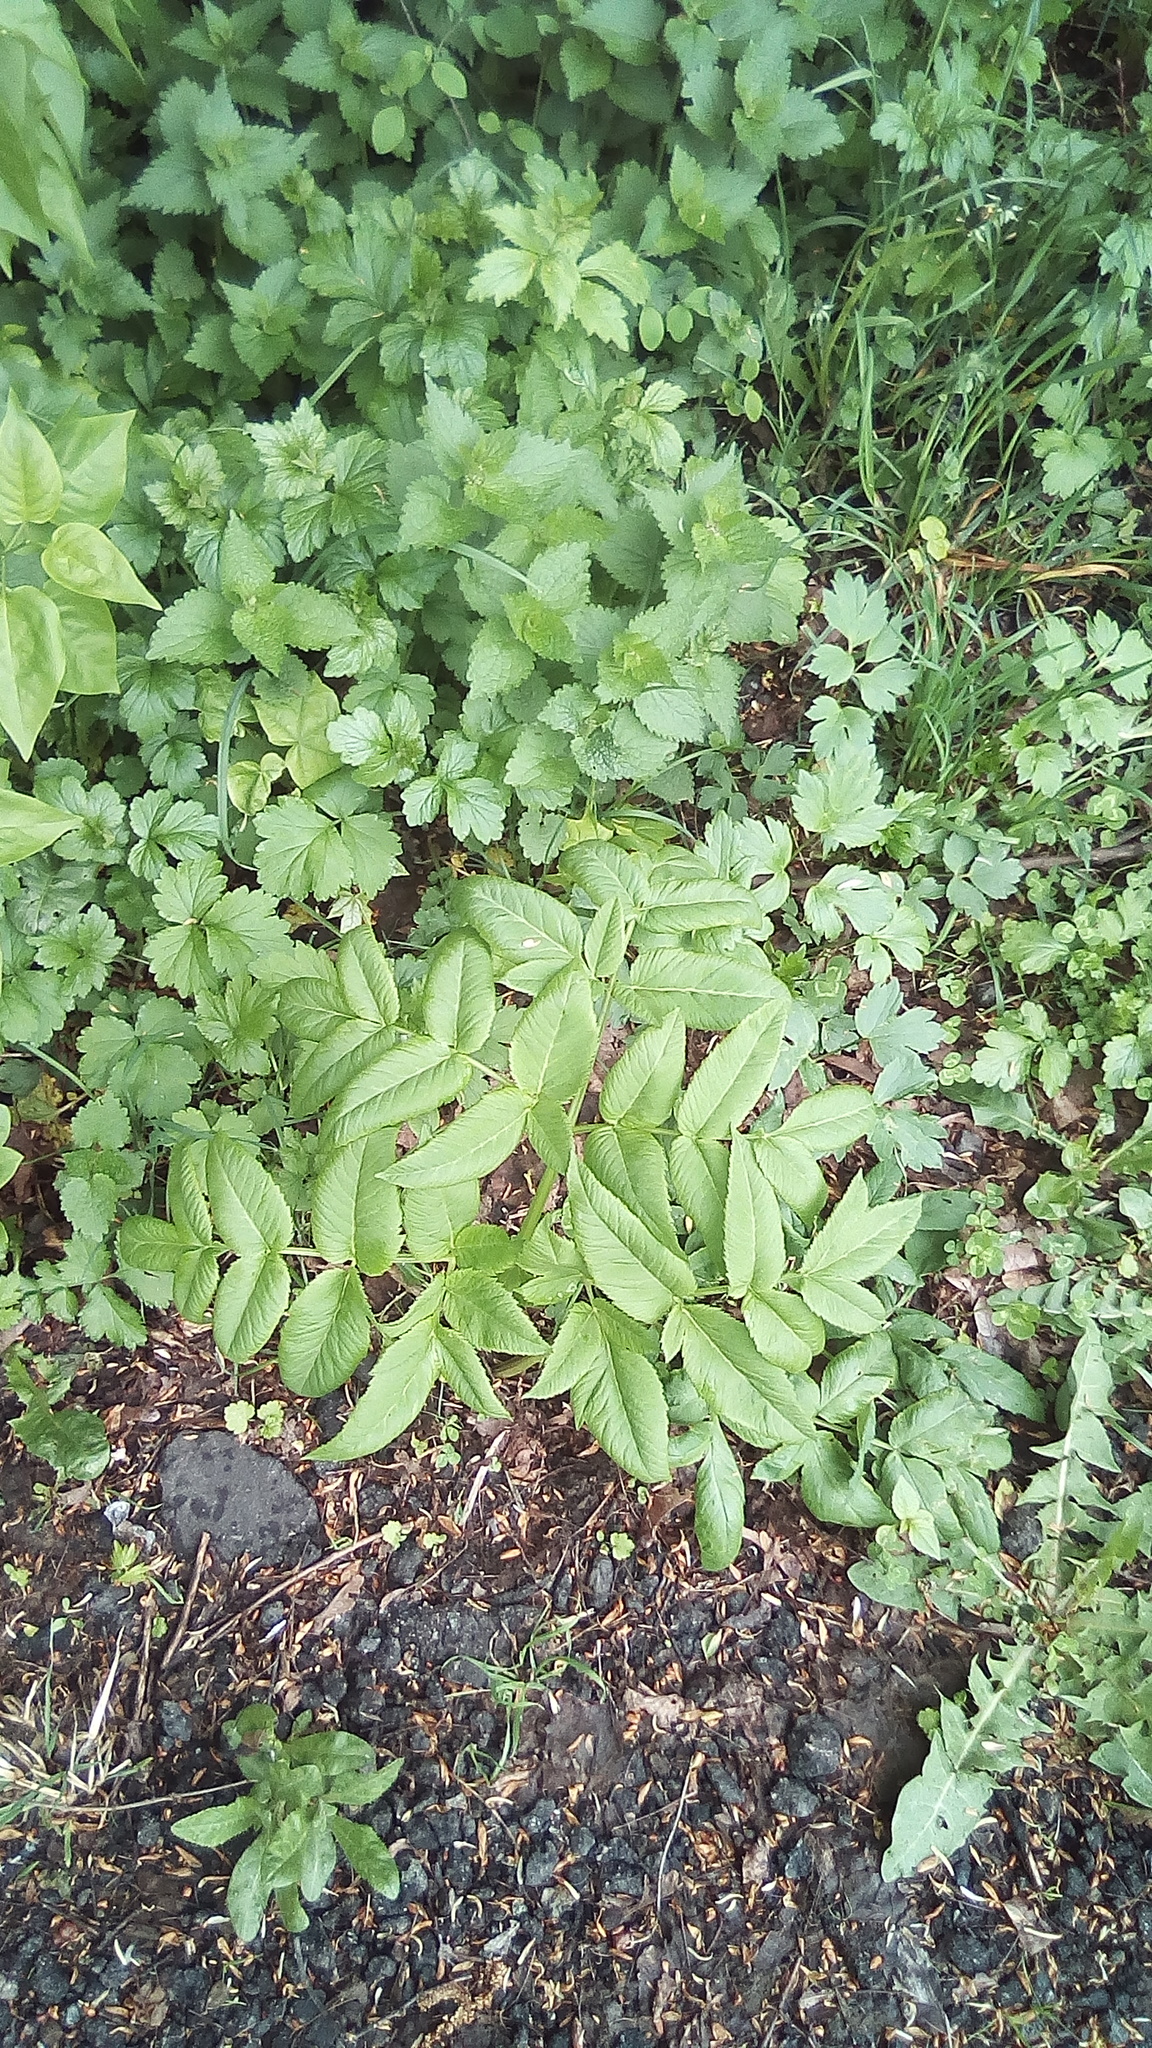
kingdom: Plantae
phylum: Tracheophyta
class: Magnoliopsida
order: Apiales
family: Apiaceae
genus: Angelica
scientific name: Angelica sylvestris
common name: Wild angelica
